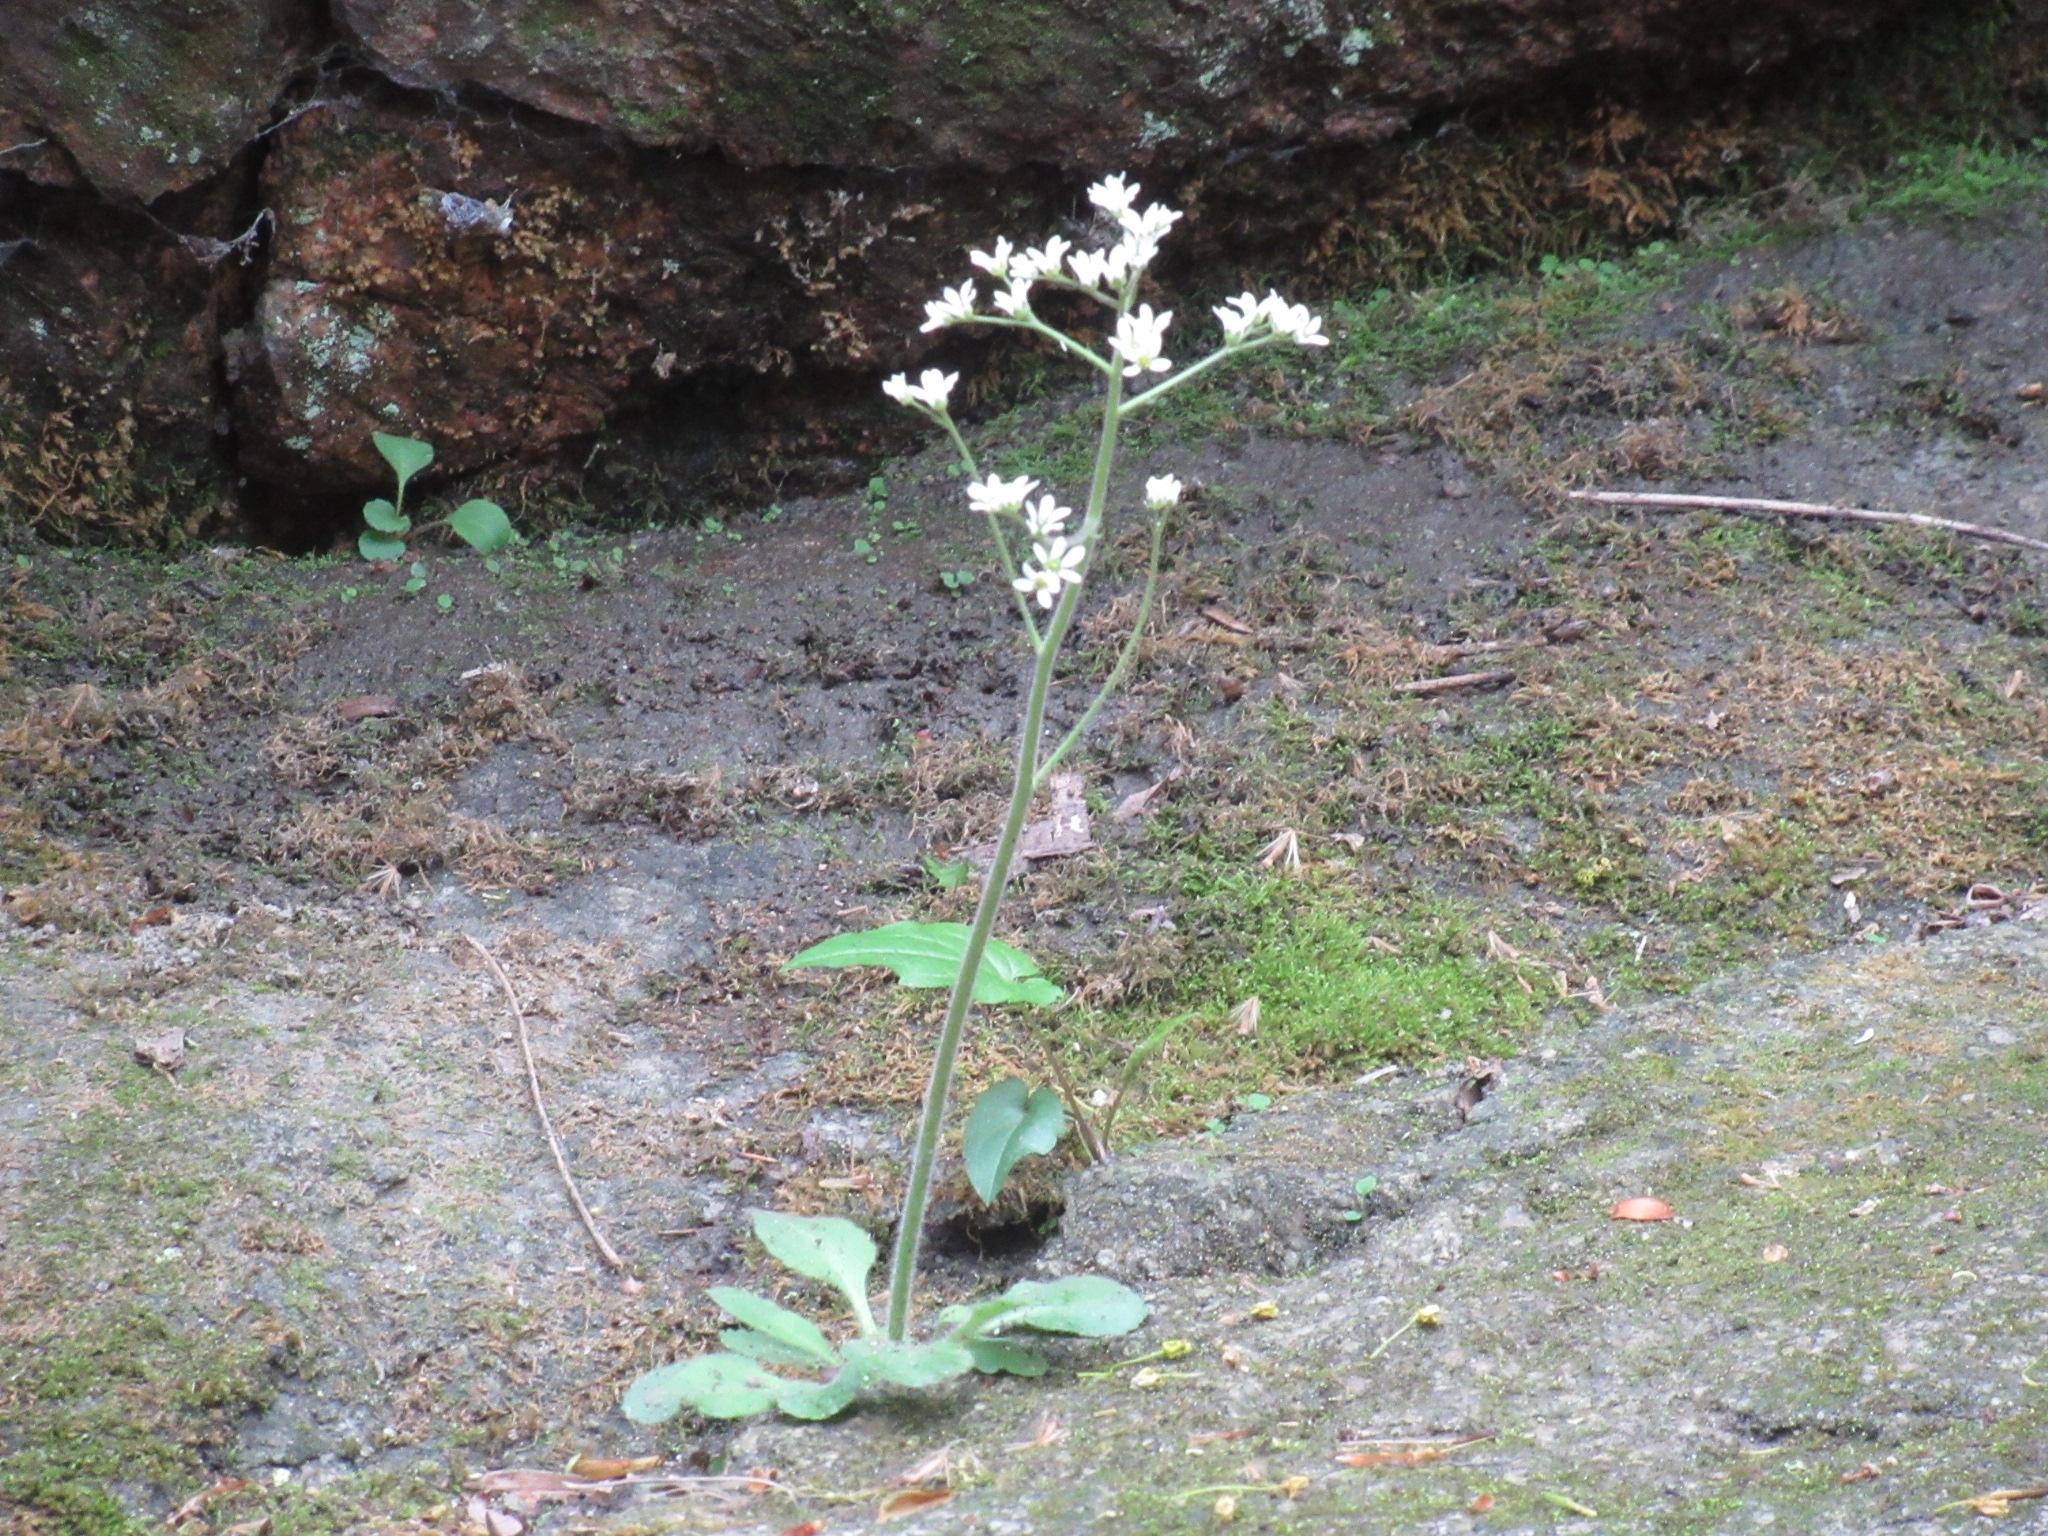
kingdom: Plantae
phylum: Tracheophyta
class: Magnoliopsida
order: Saxifragales
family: Saxifragaceae
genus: Micranthes
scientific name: Micranthes virginiensis
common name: Early saxifrage
